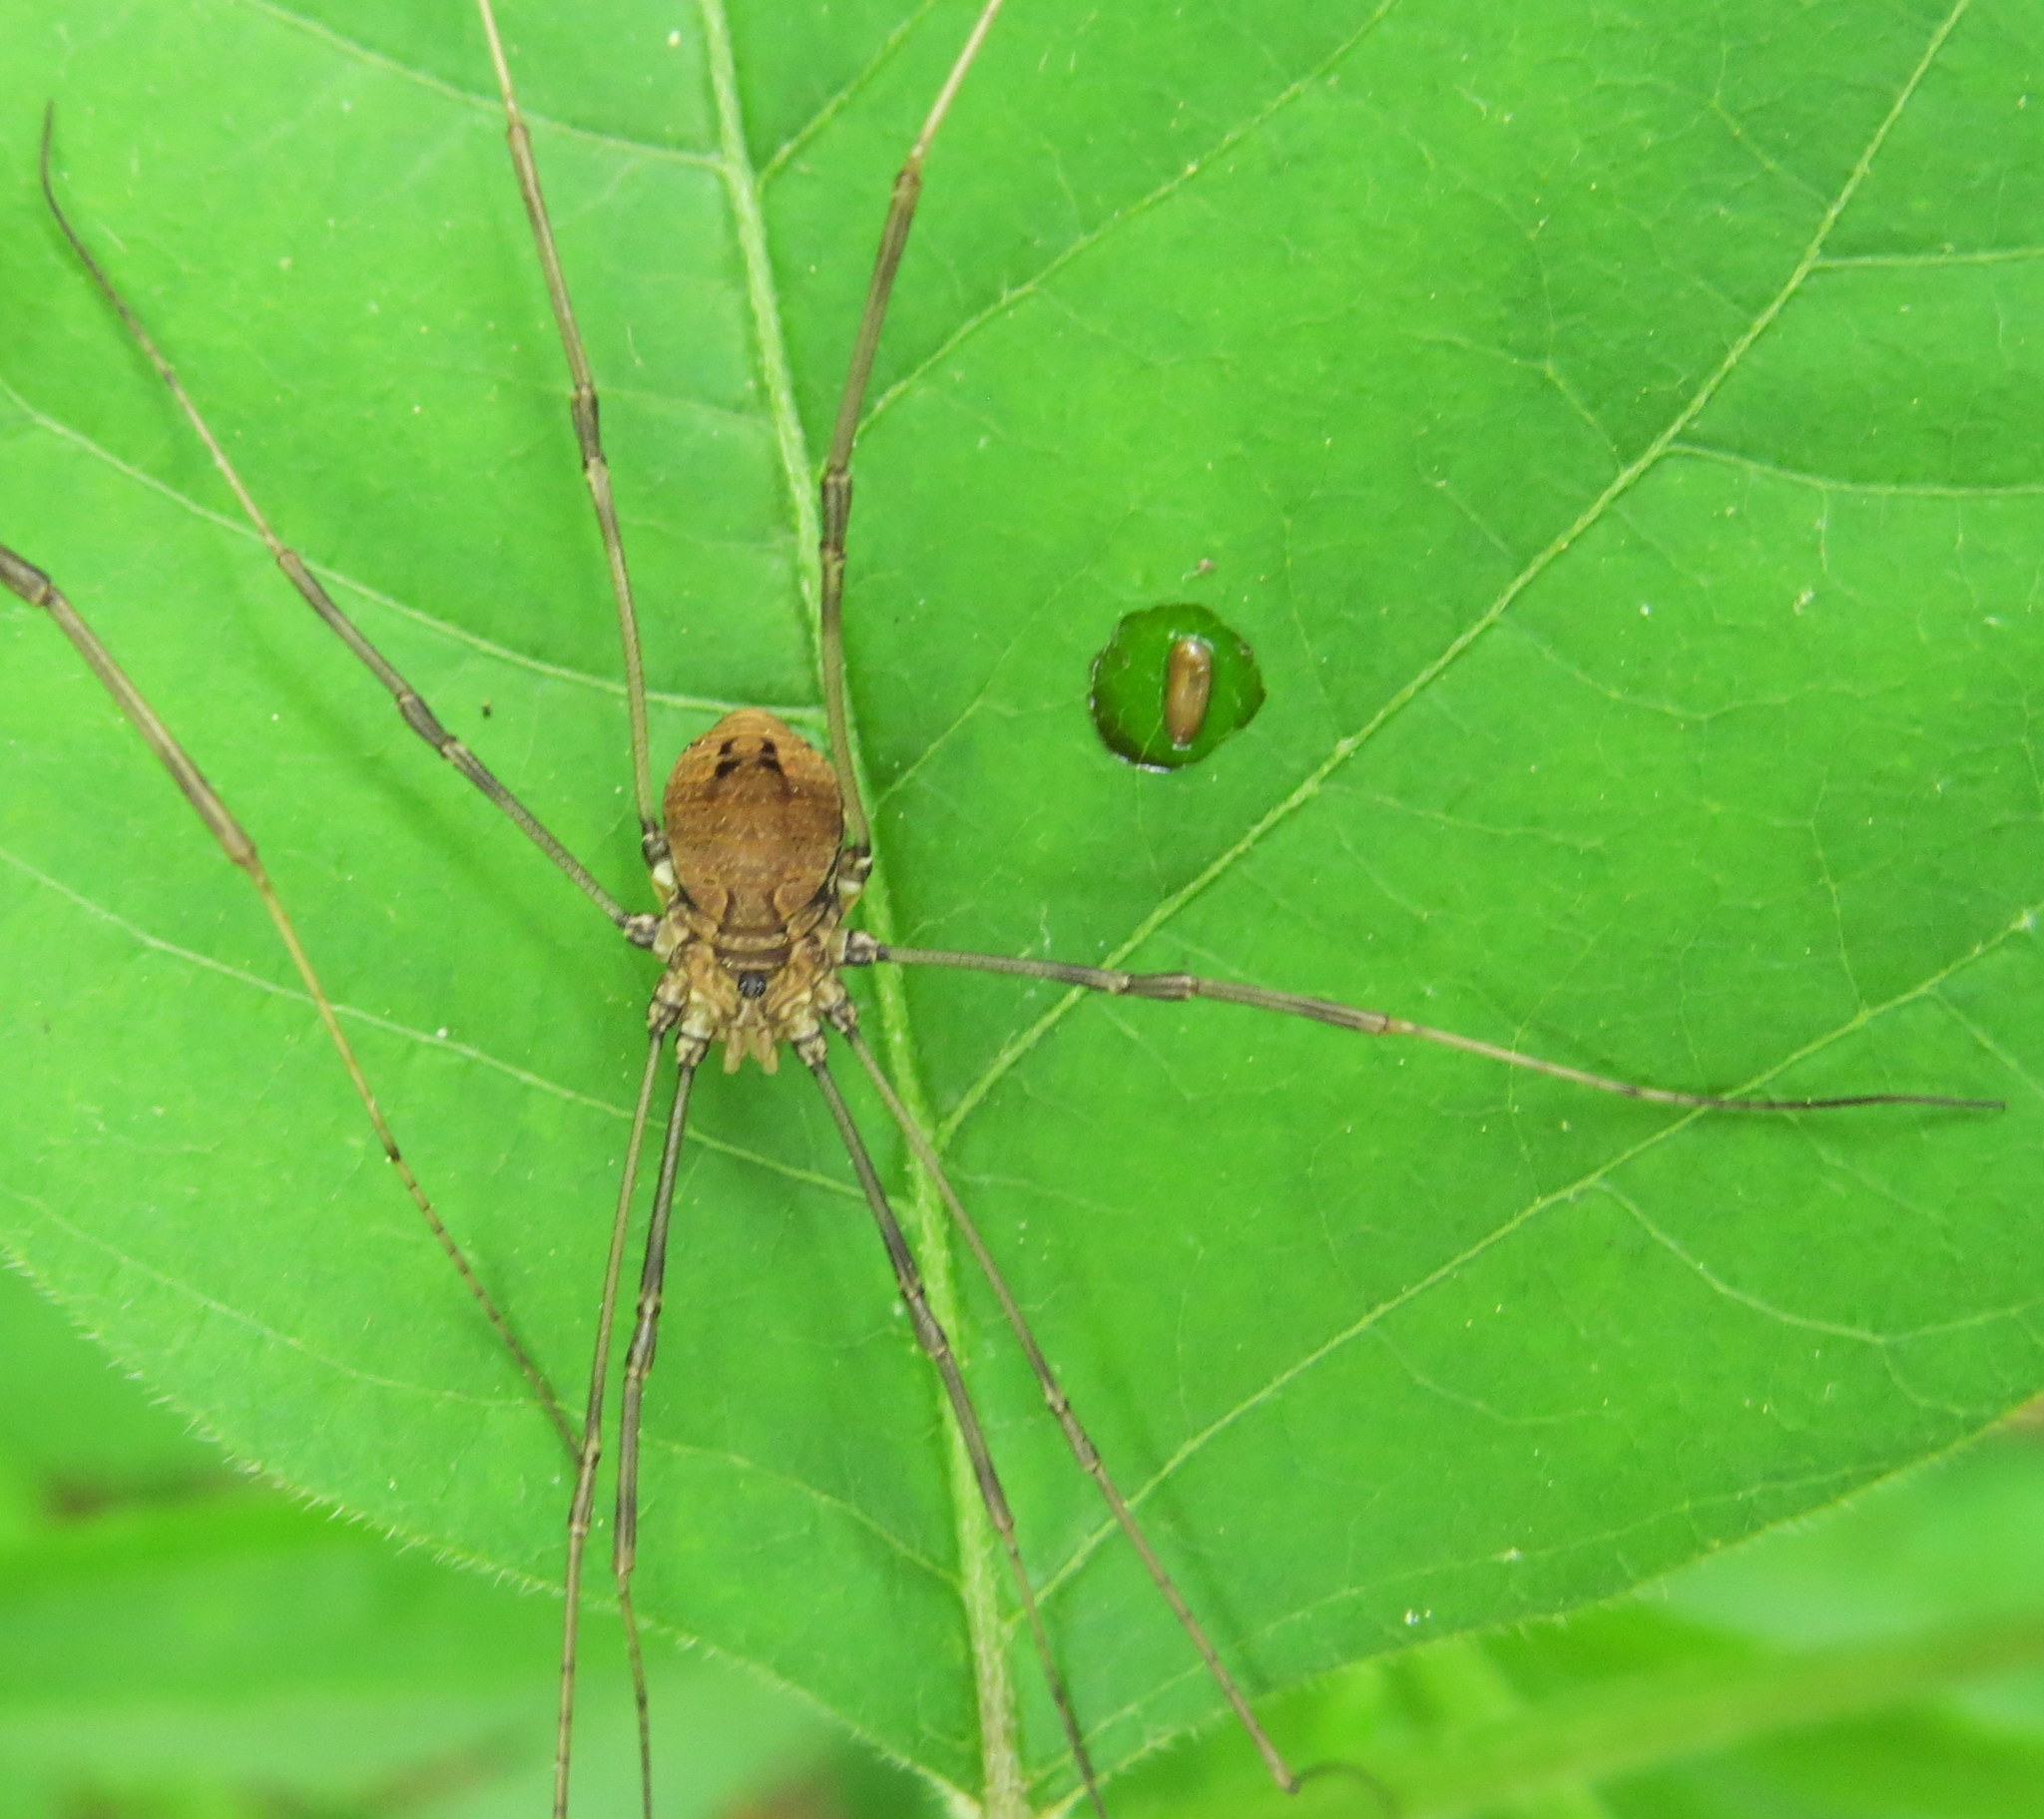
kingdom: Animalia
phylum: Arthropoda
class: Arachnida
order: Opiliones
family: Sclerosomatidae
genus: Leiobunum
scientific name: Leiobunum verrucosum
